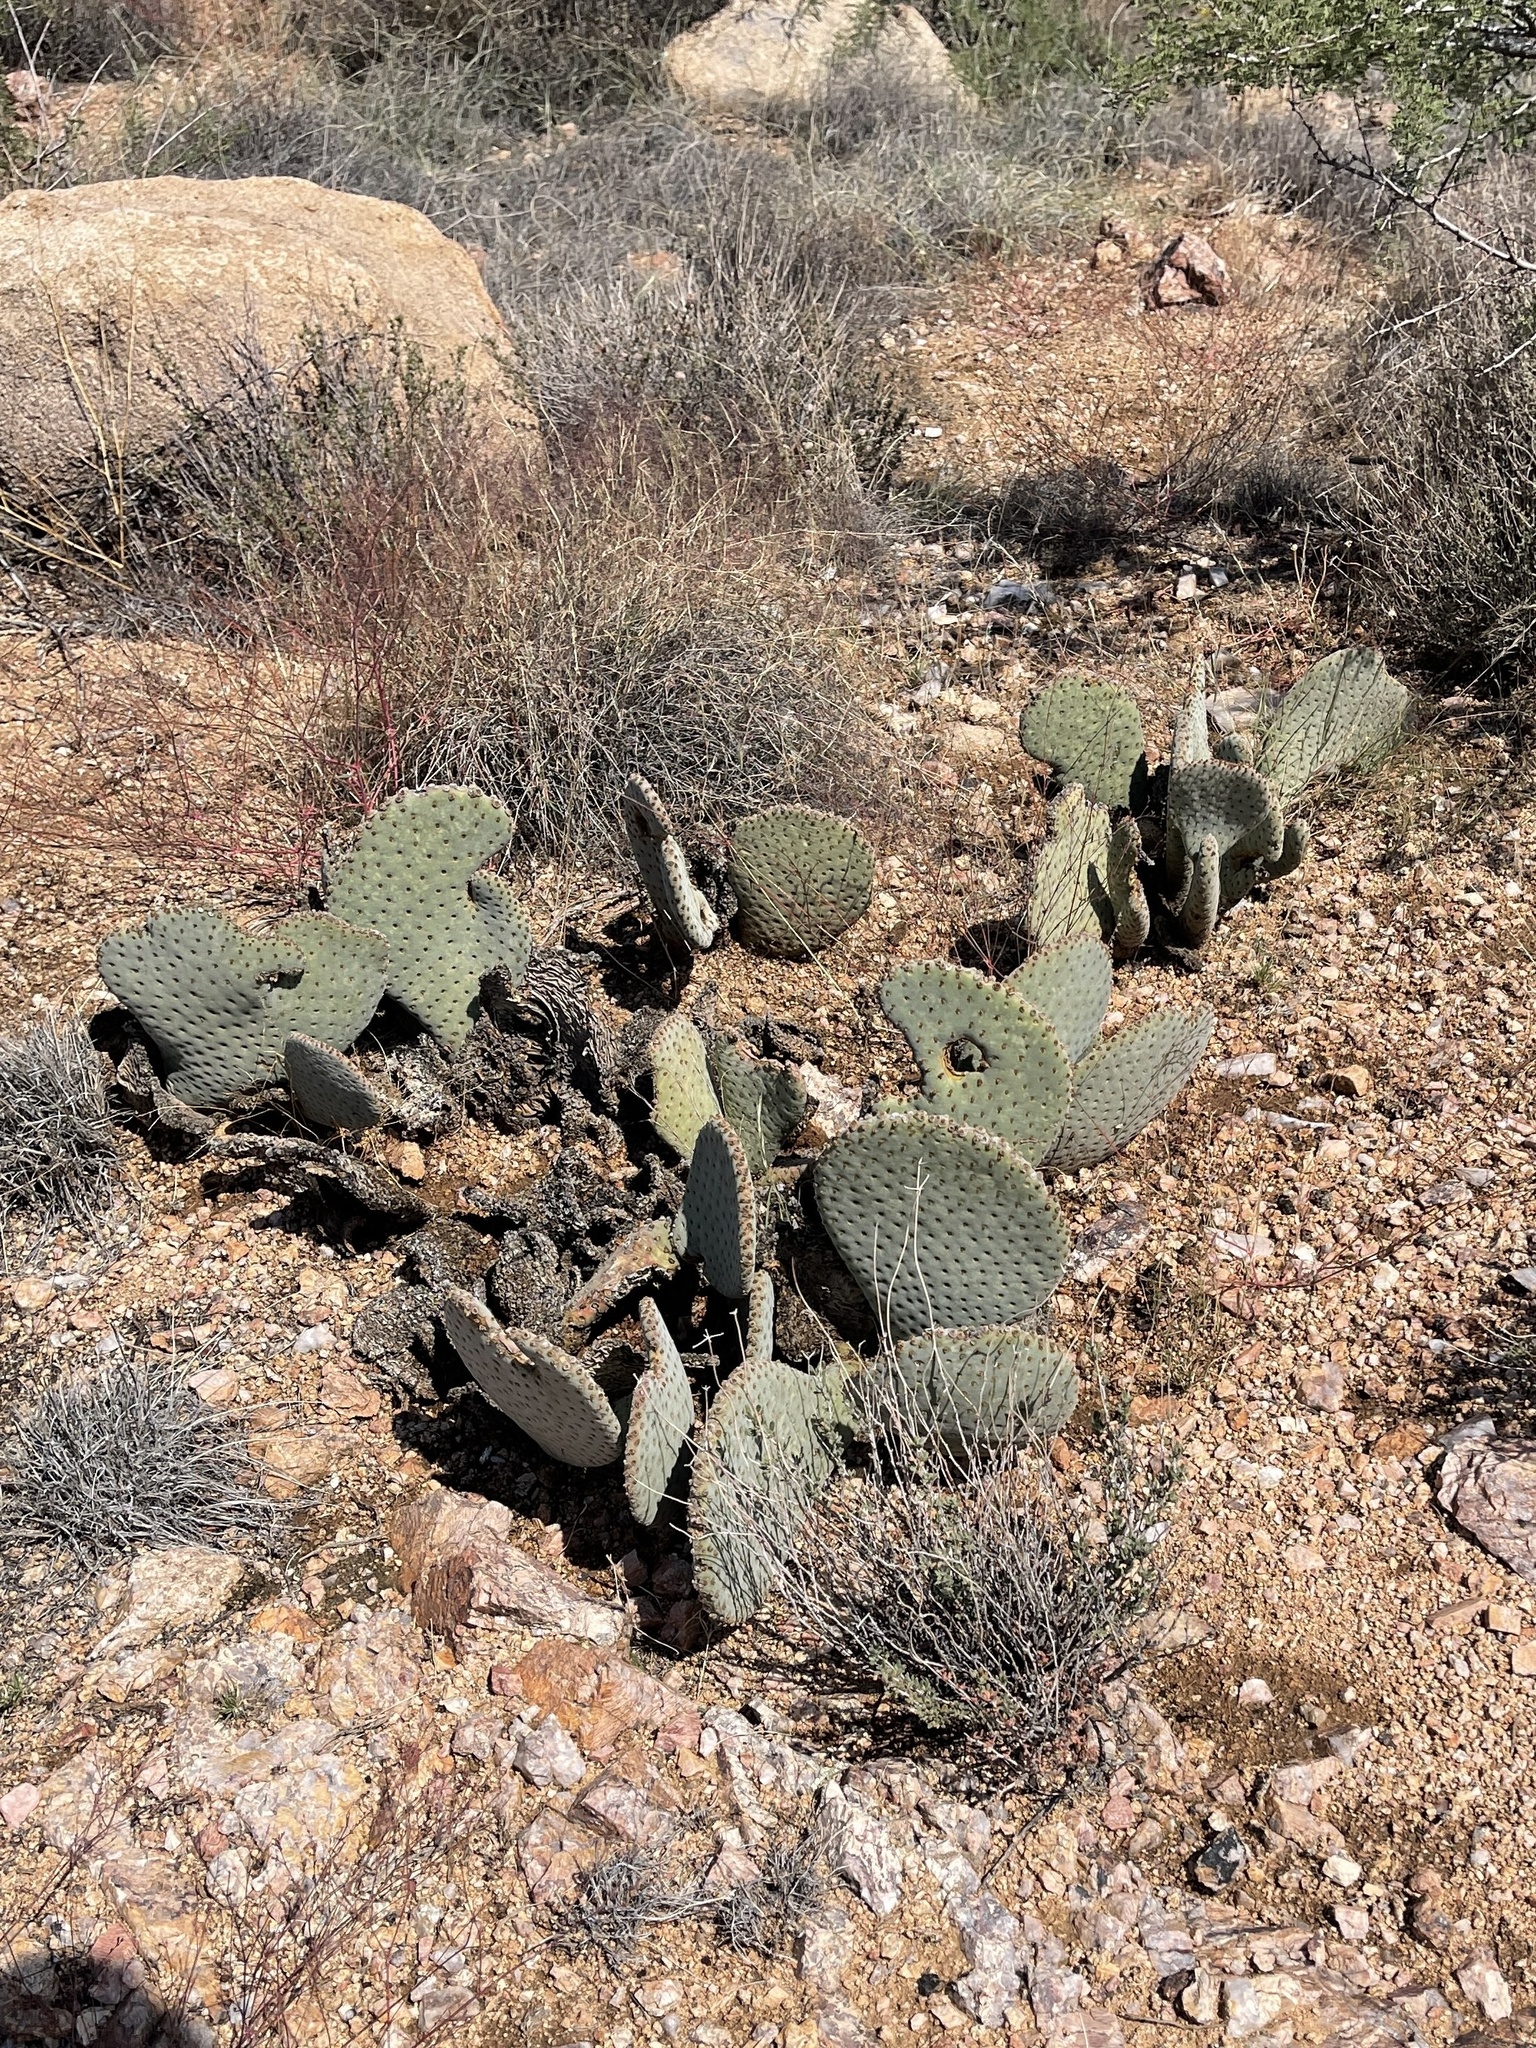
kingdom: Plantae
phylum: Tracheophyta
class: Magnoliopsida
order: Caryophyllales
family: Cactaceae
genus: Opuntia
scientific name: Opuntia basilaris
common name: Beavertail prickly-pear
